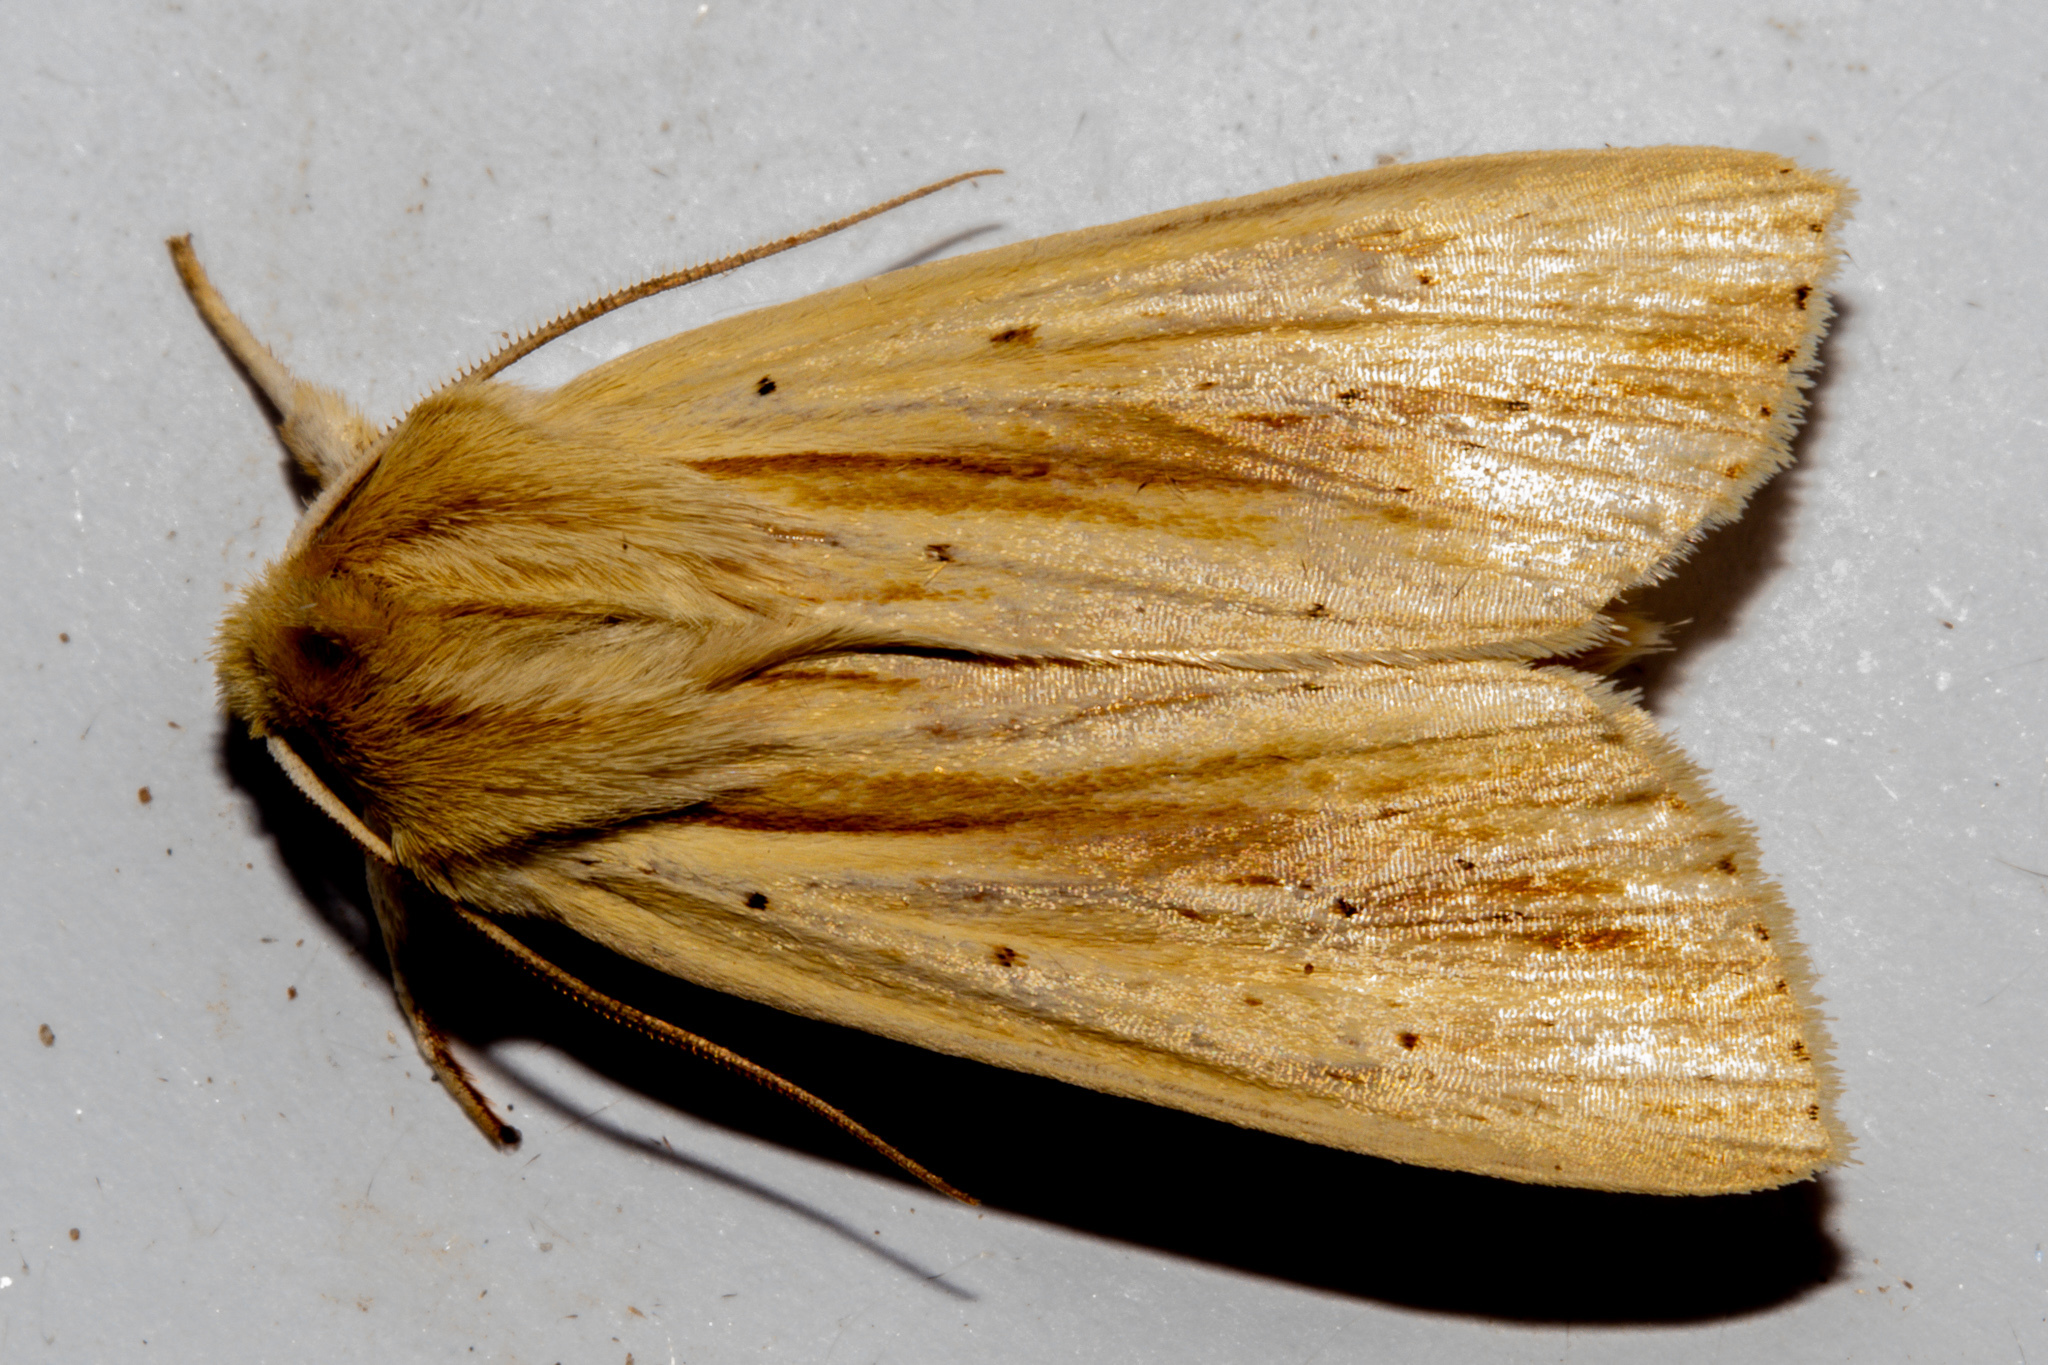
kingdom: Animalia
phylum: Arthropoda
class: Insecta
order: Lepidoptera
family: Noctuidae
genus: Ichneutica
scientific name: Ichneutica semivittata
